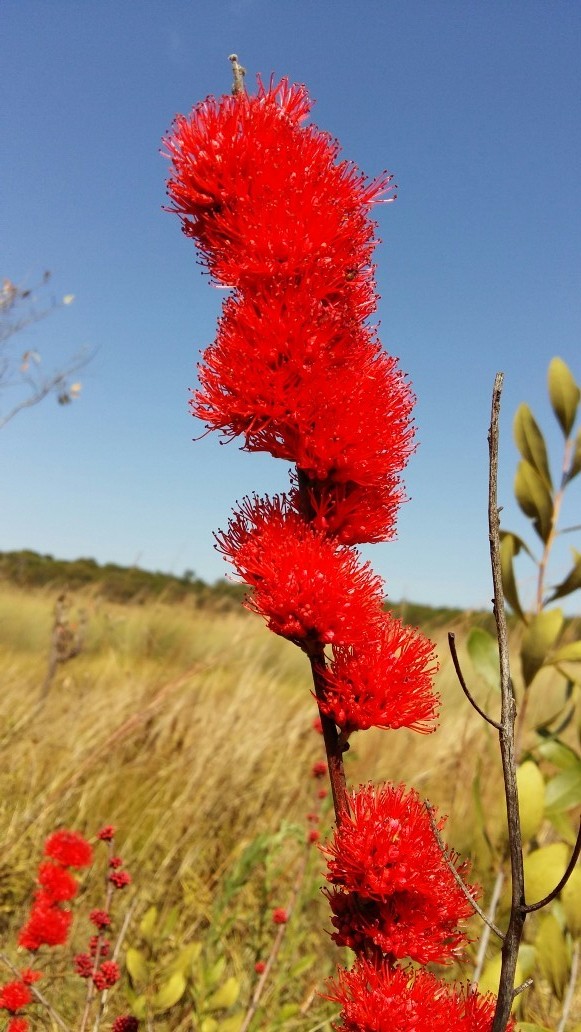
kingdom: Plantae
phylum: Tracheophyta
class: Magnoliopsida
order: Myrtales
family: Combretaceae
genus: Combretum
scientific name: Combretum platypetalum
